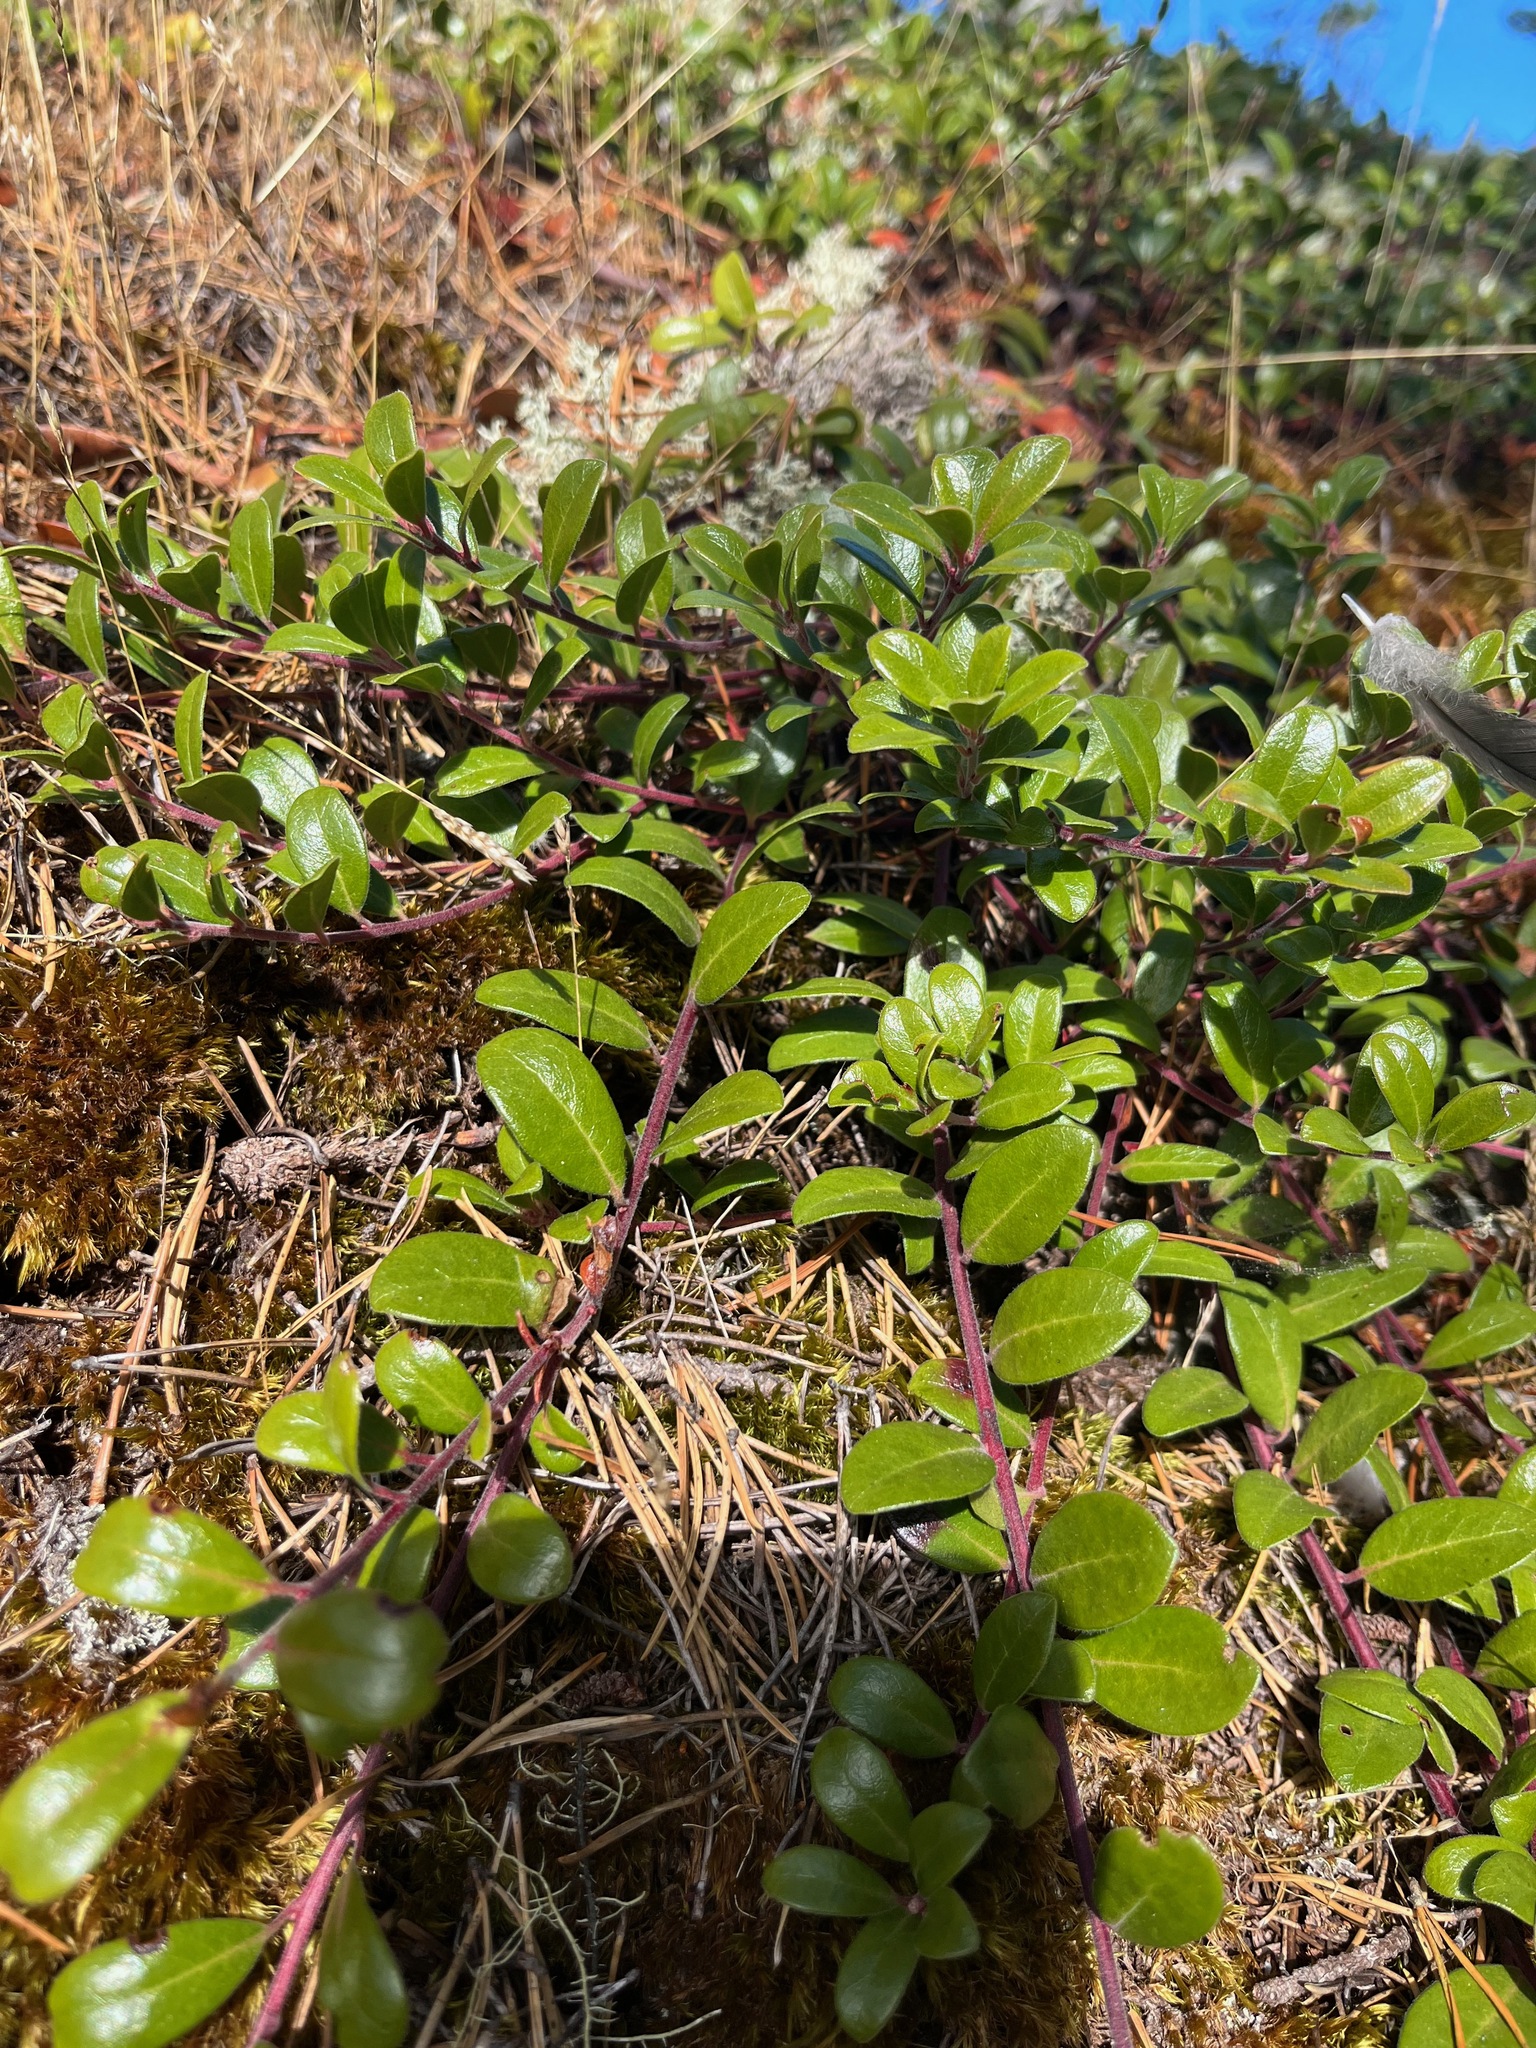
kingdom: Plantae
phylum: Tracheophyta
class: Magnoliopsida
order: Ericales
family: Ericaceae
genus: Arctostaphylos
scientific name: Arctostaphylos uva-ursi
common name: Bearberry
